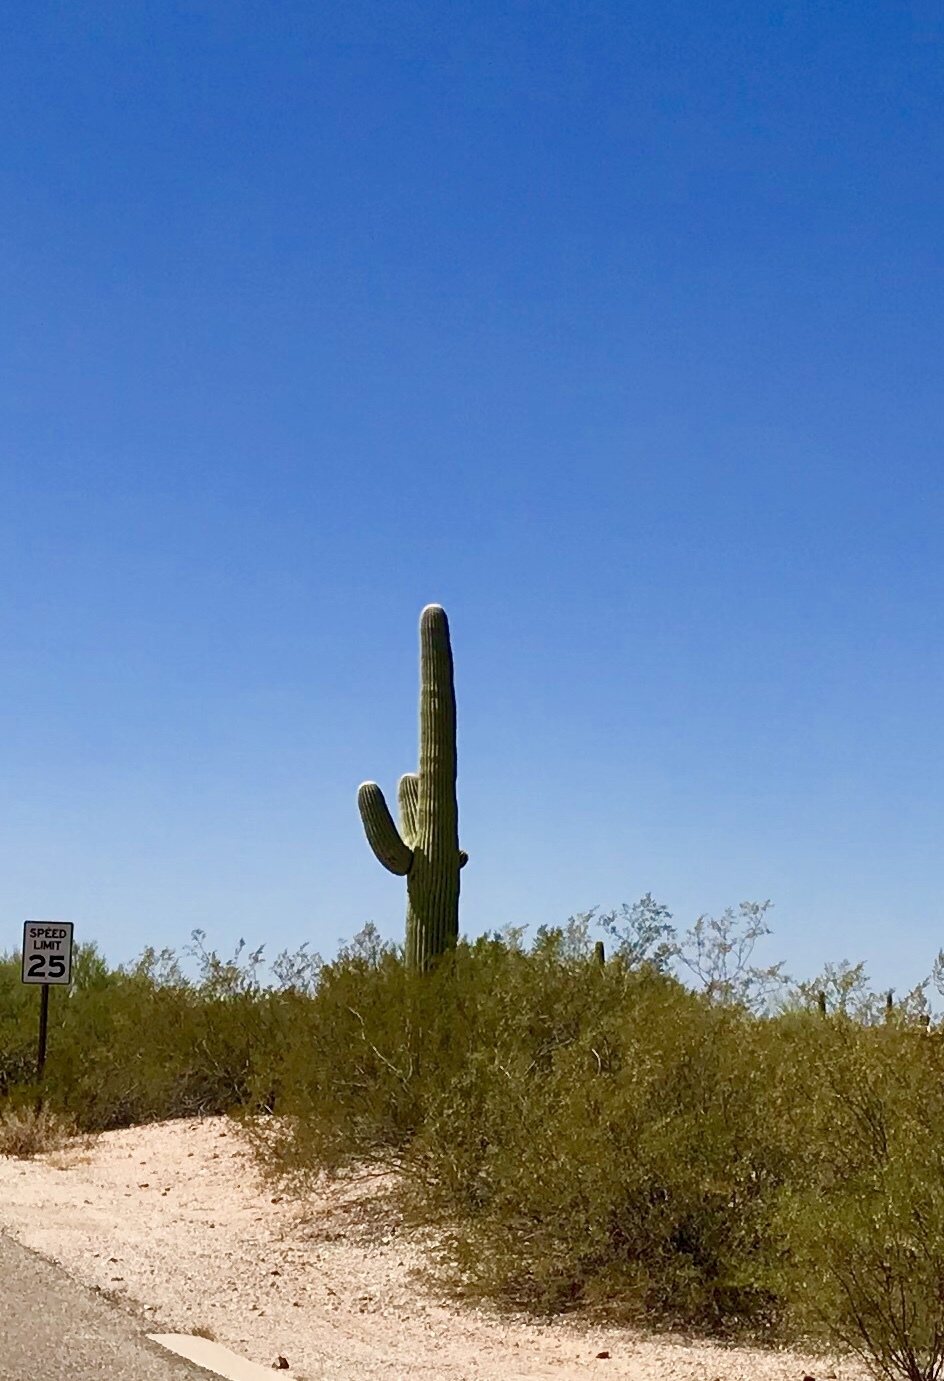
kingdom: Plantae
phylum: Tracheophyta
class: Magnoliopsida
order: Caryophyllales
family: Cactaceae
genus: Carnegiea
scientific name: Carnegiea gigantea
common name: Saguaro
